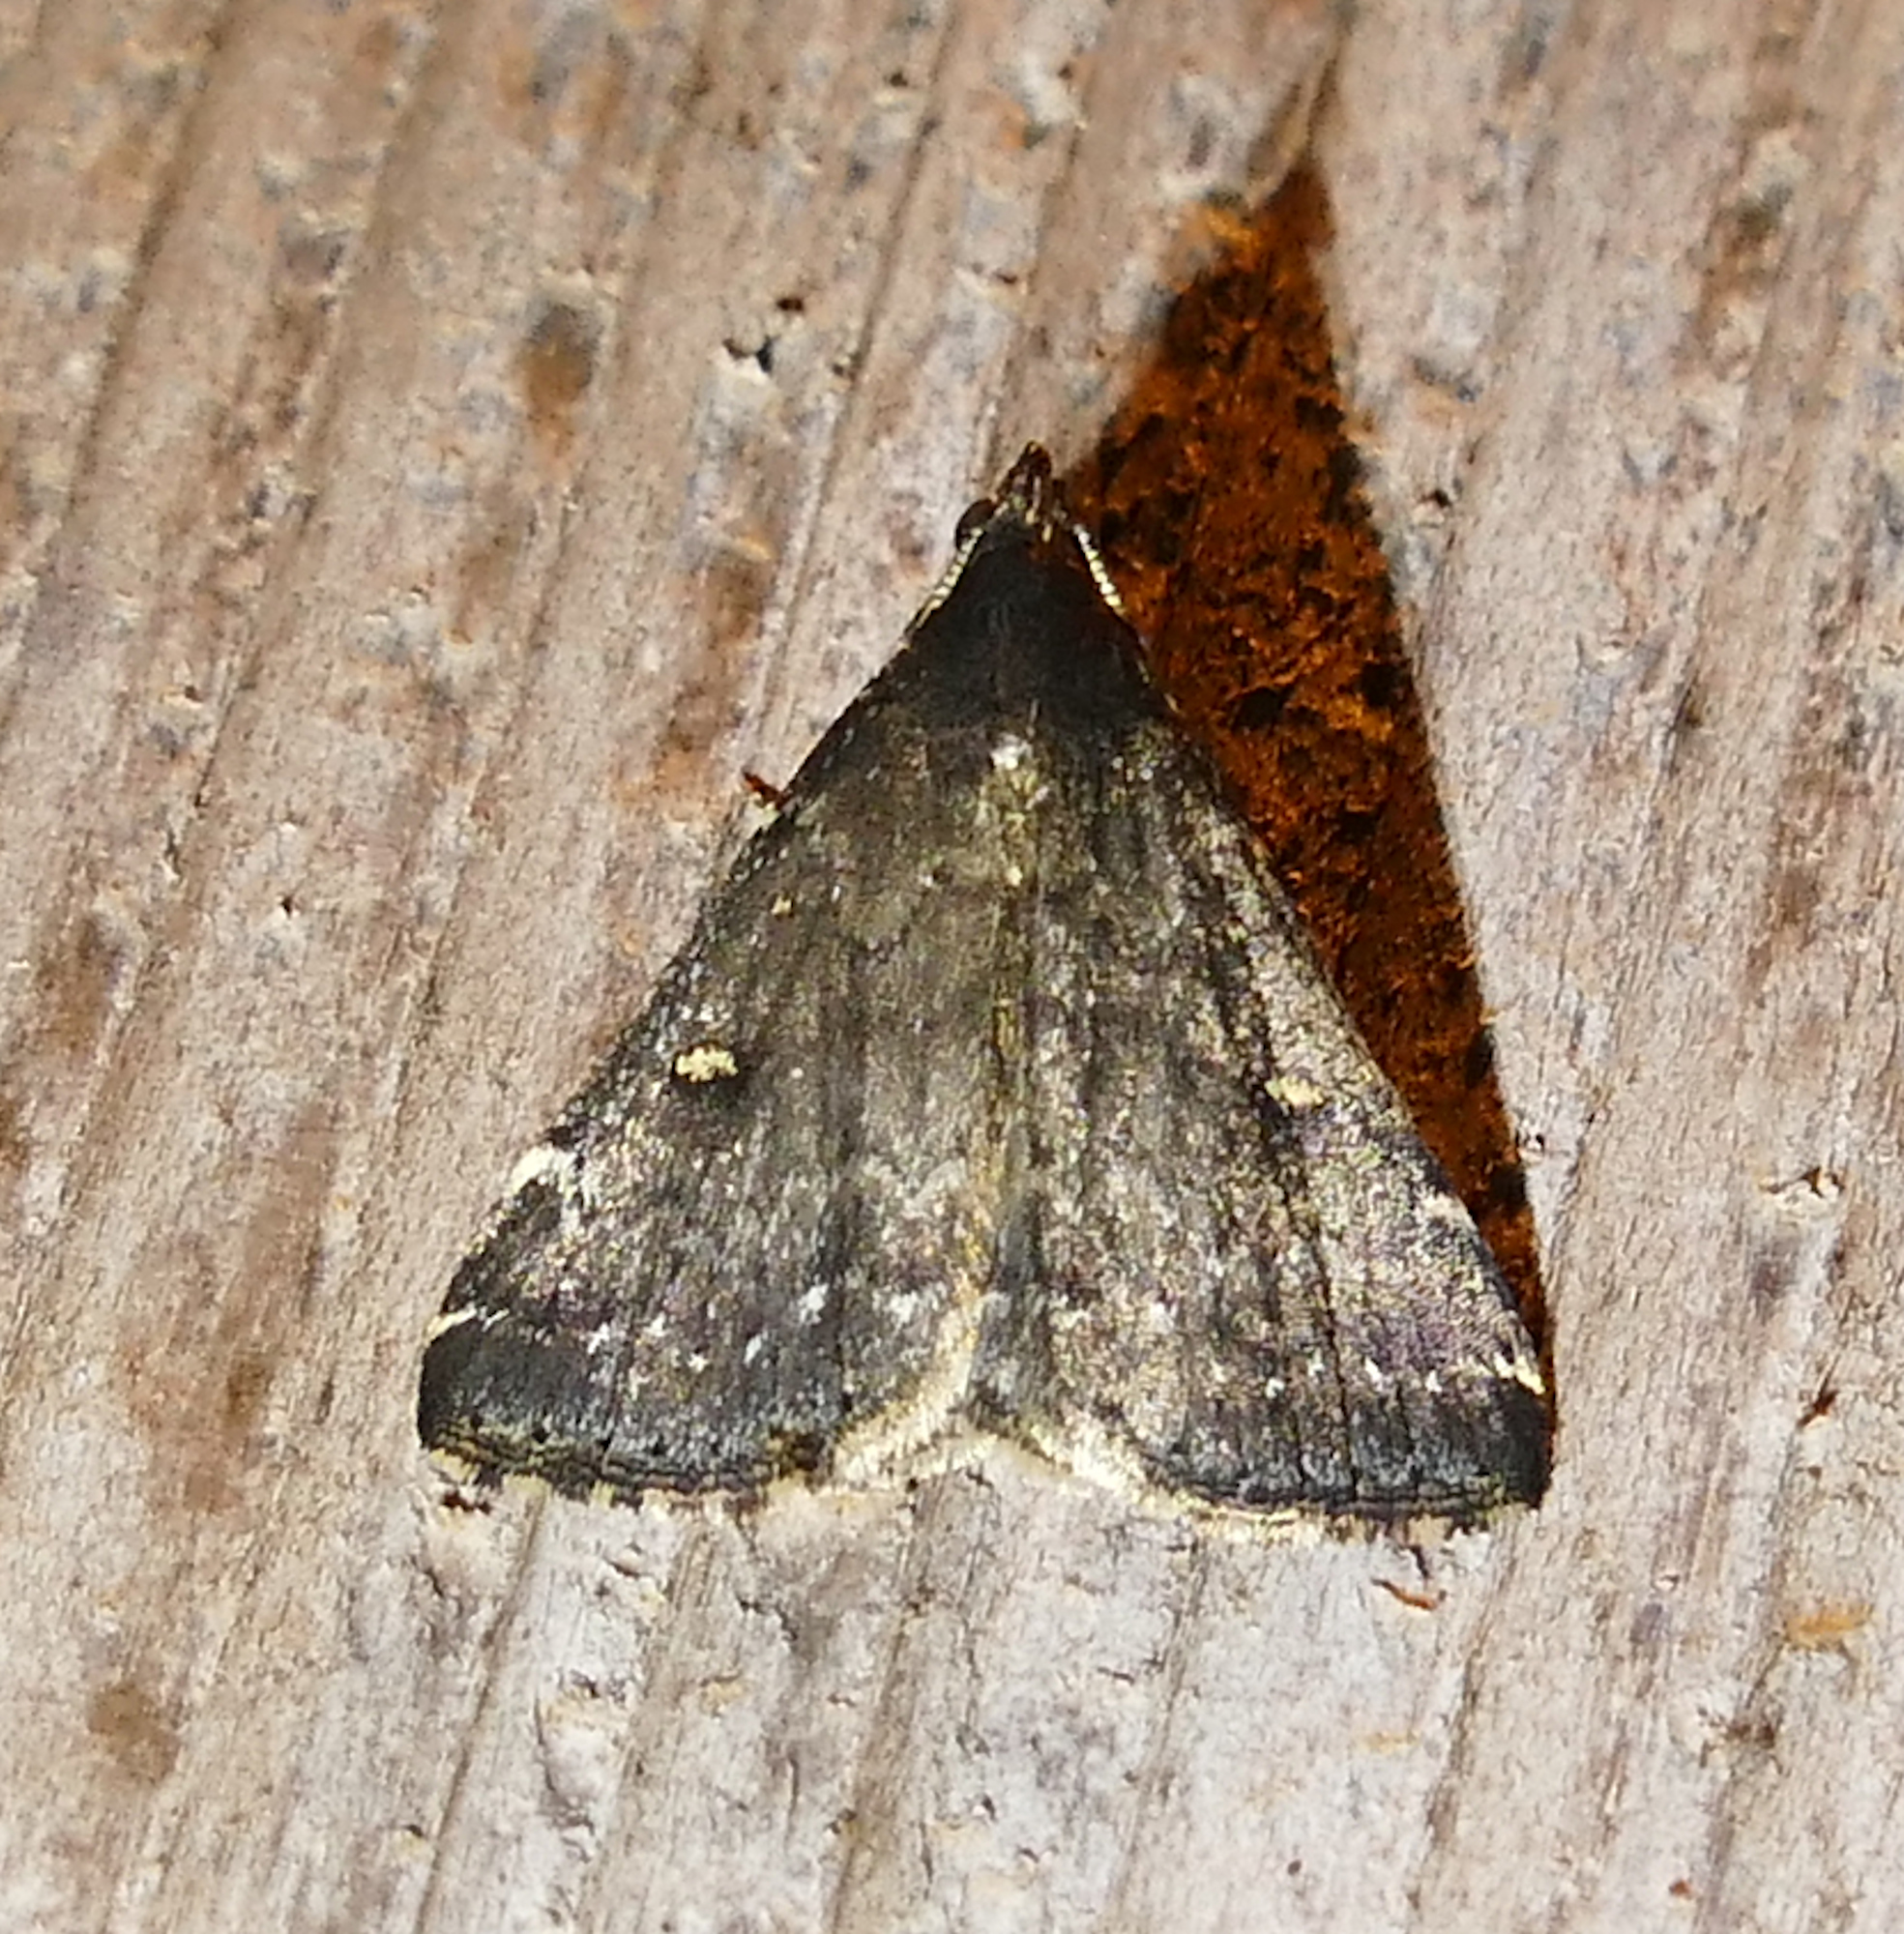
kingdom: Animalia
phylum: Arthropoda
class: Insecta
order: Lepidoptera
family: Erebidae
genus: Tetanolita
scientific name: Tetanolita mynesalis
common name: Smoky tetanolita moth
